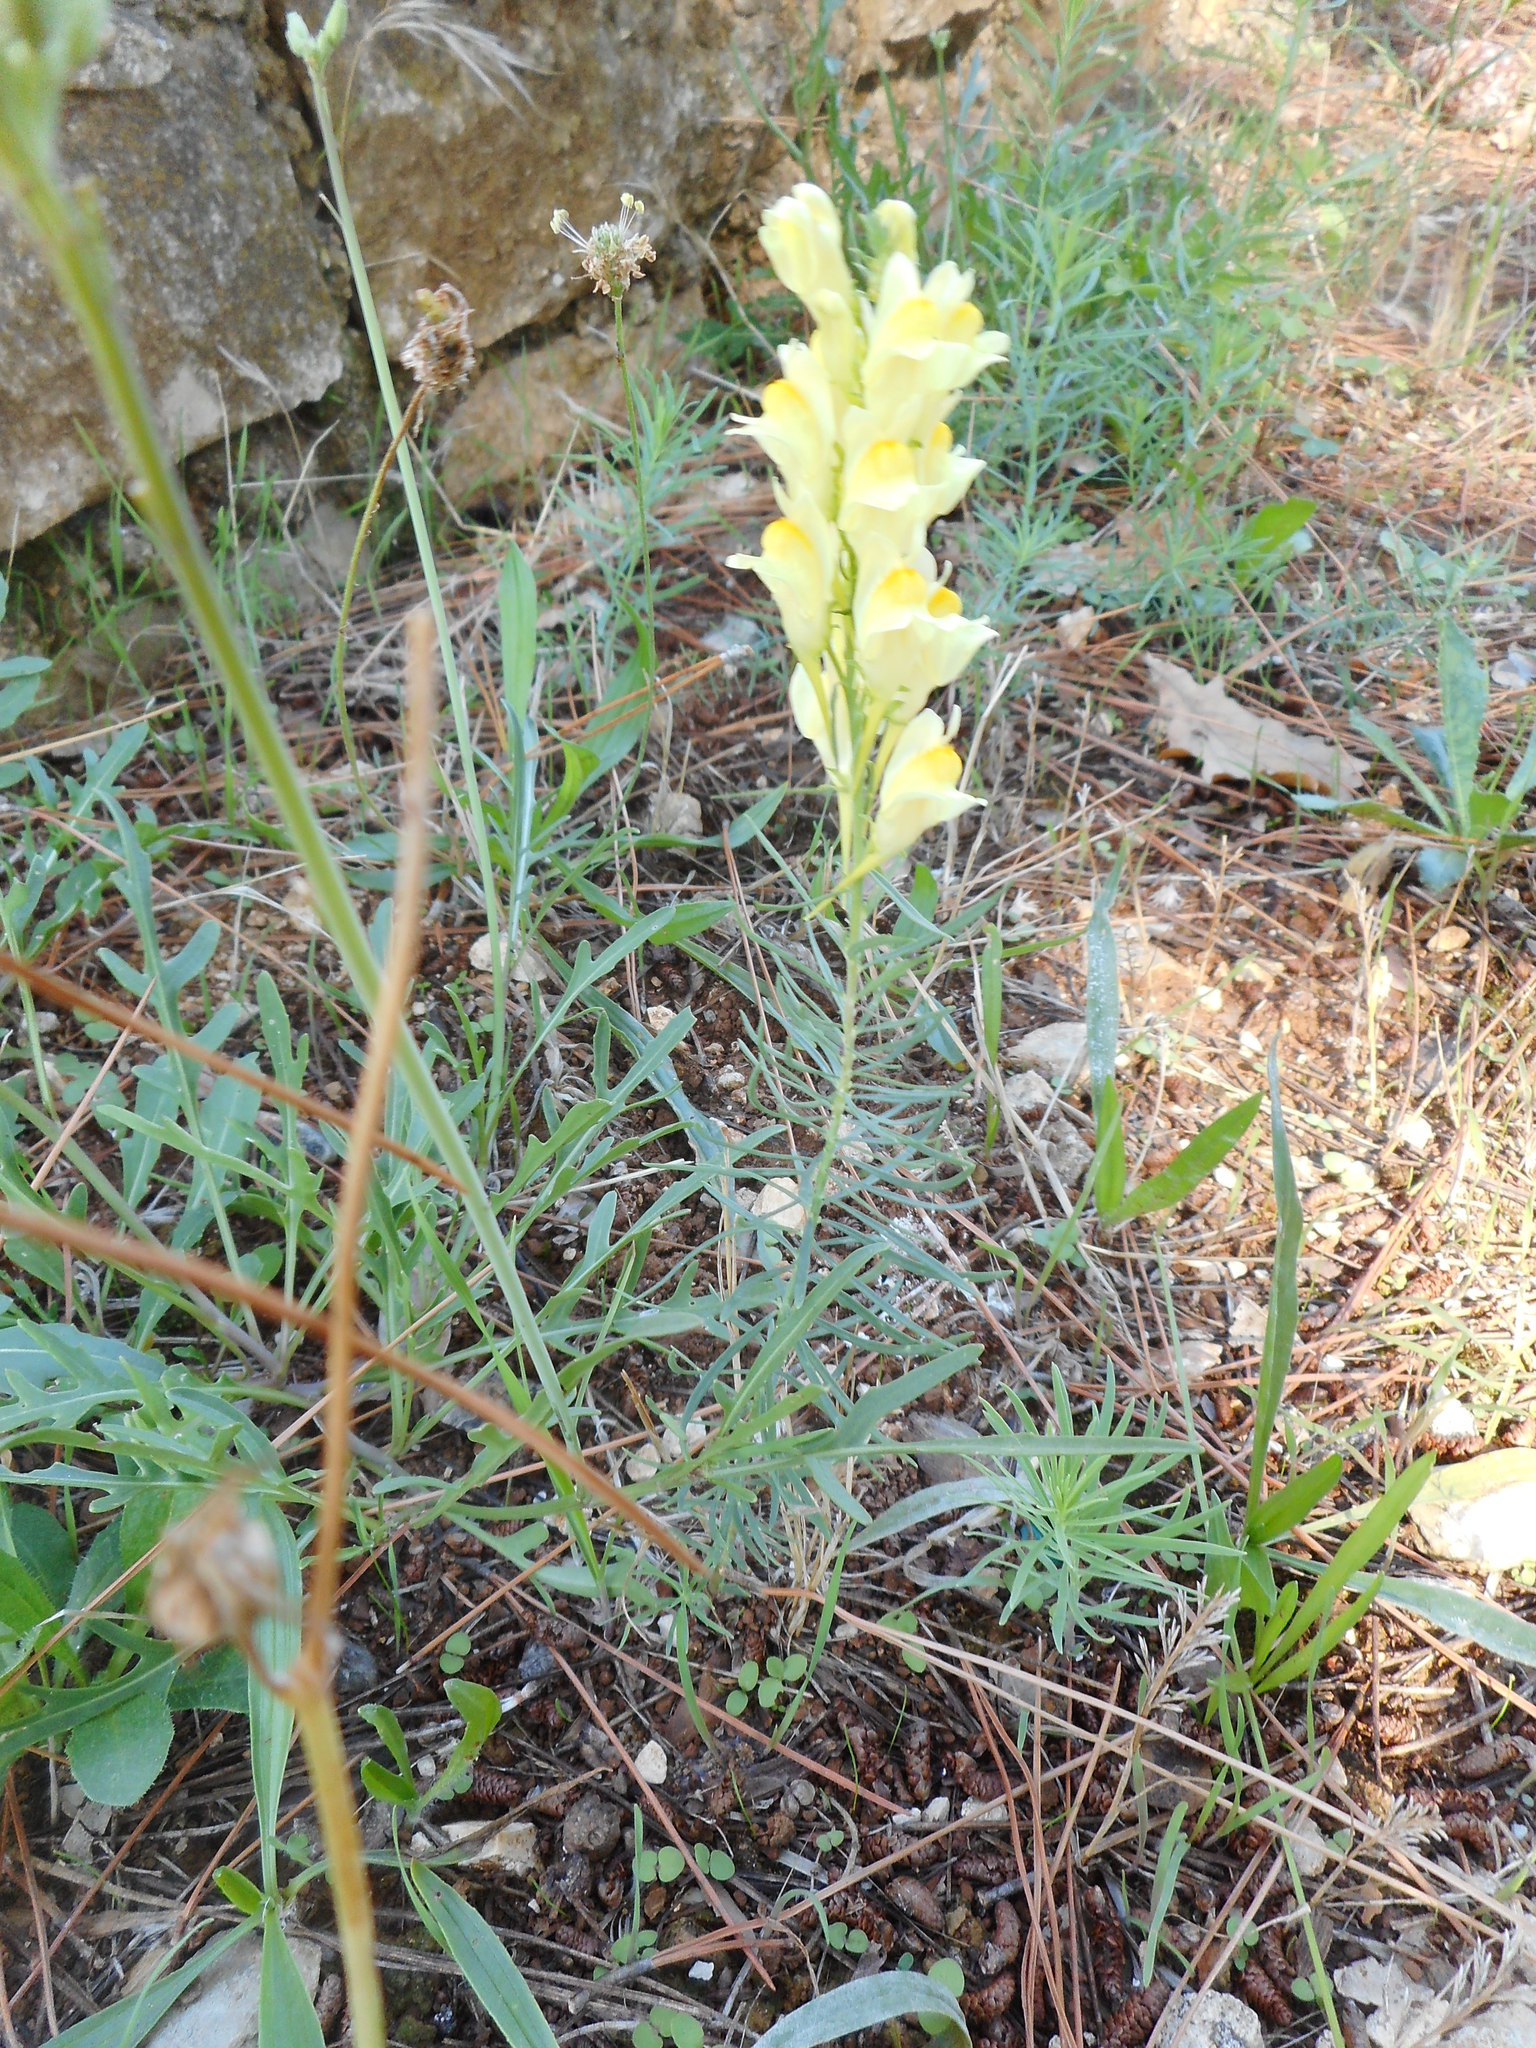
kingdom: Plantae
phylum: Tracheophyta
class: Magnoliopsida
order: Lamiales
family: Plantaginaceae
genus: Linaria
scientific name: Linaria vulgaris
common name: Butter and eggs
